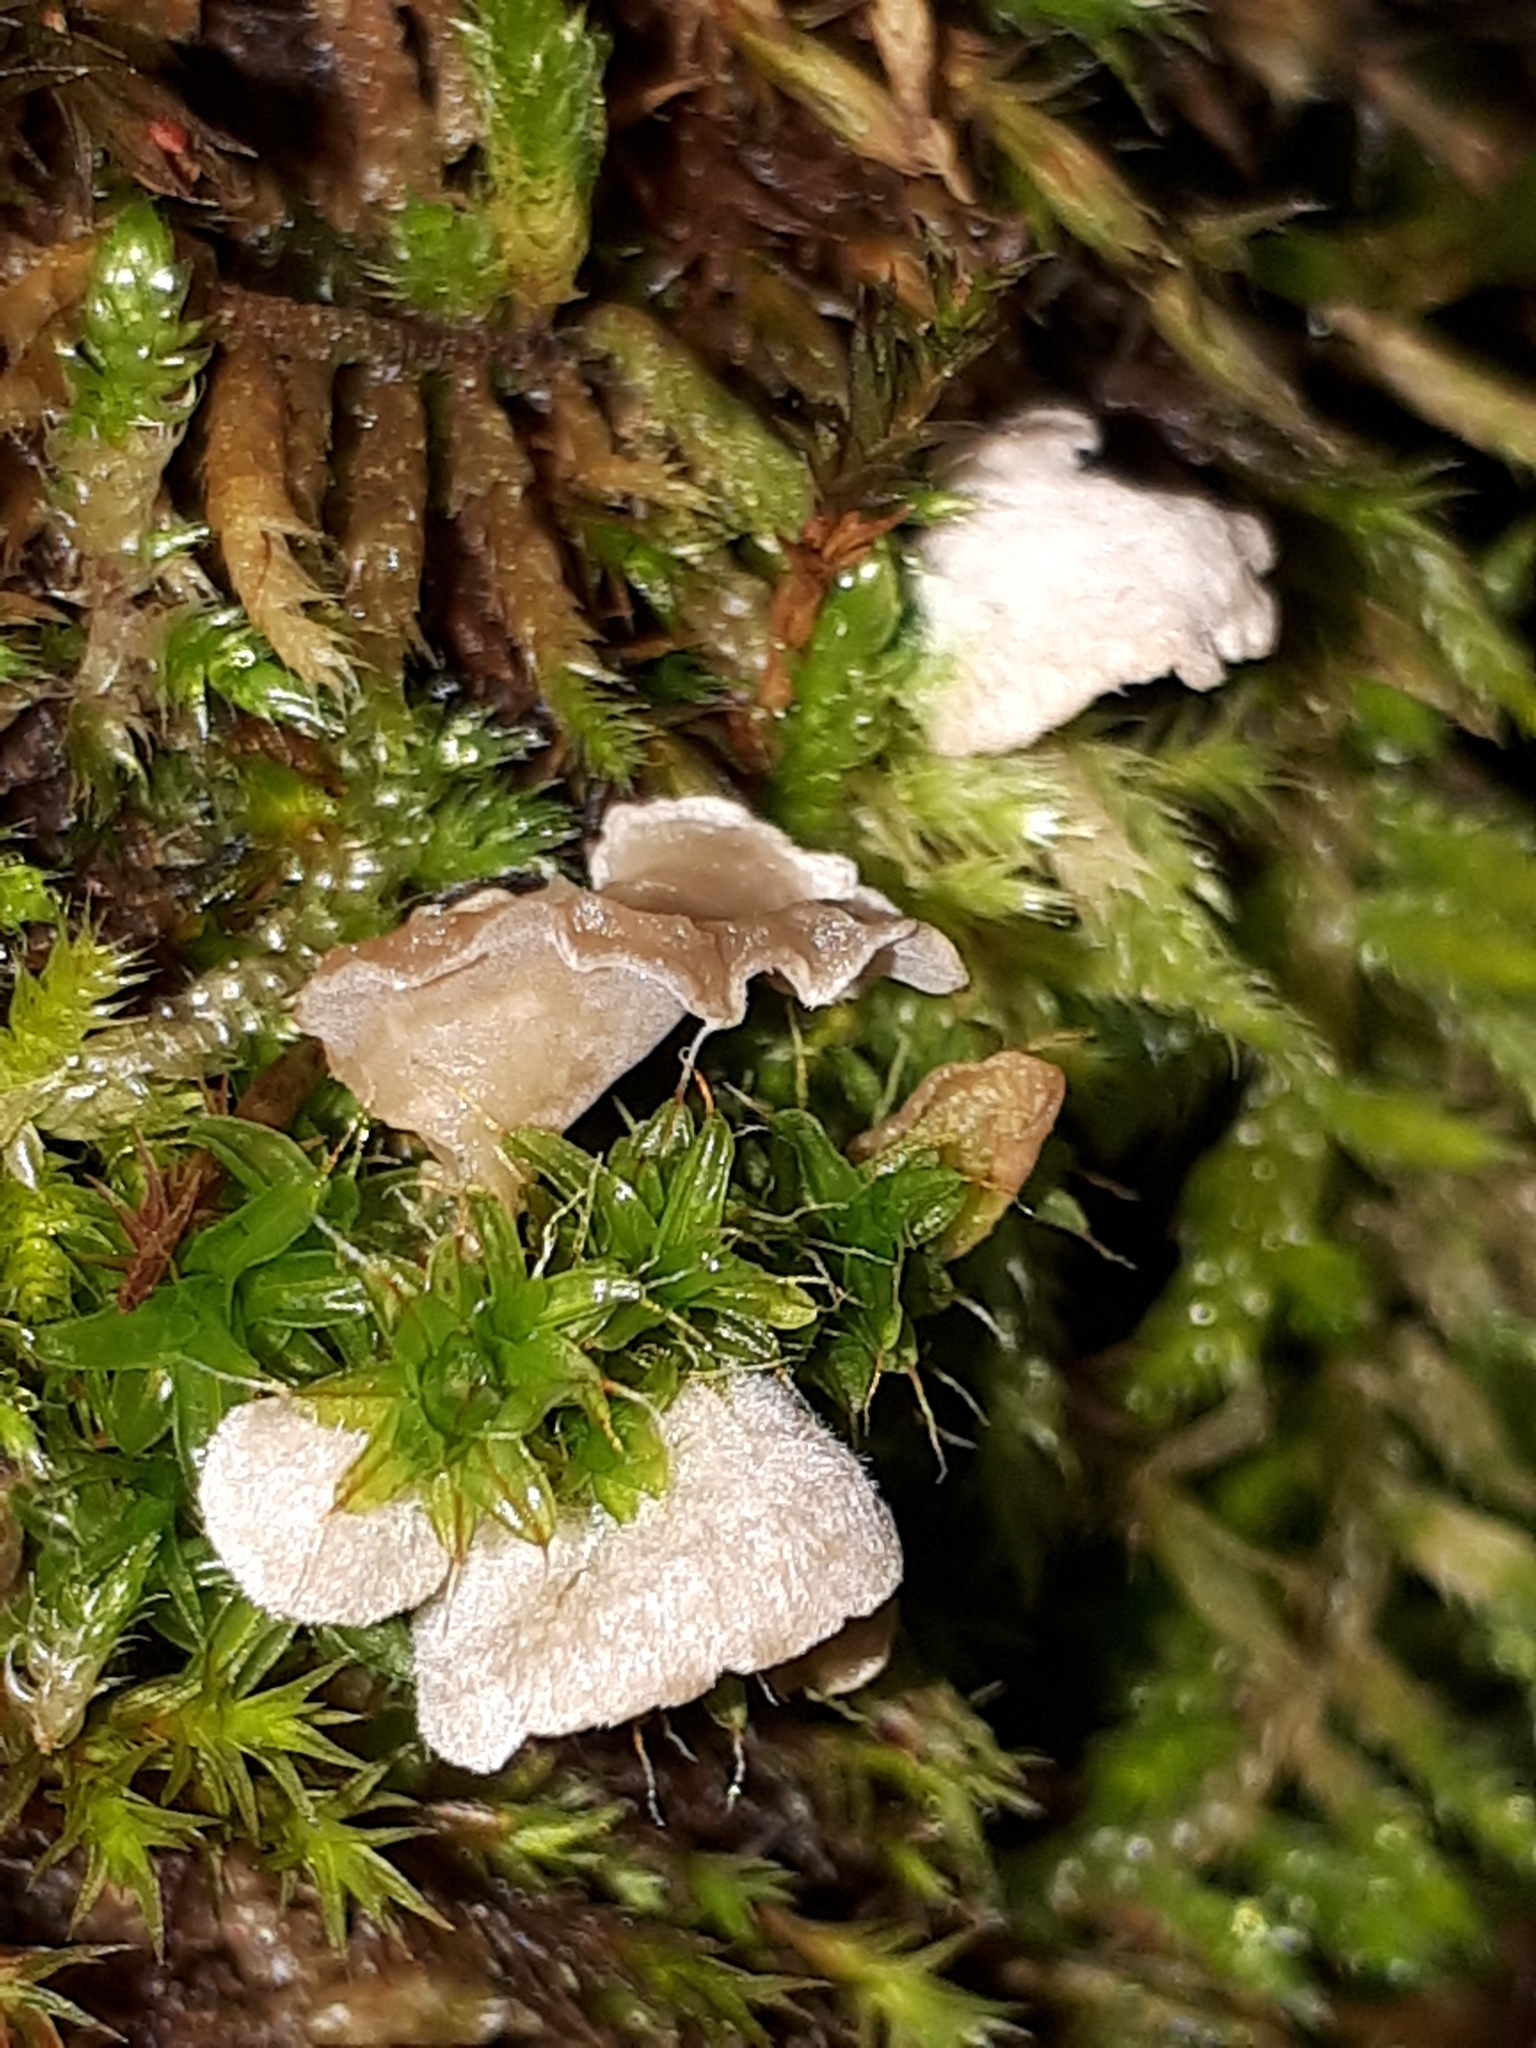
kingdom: Fungi
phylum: Basidiomycota
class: Agaricomycetes
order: Agaricales
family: Hygrophoraceae
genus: Arrhenia
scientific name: Arrhenia retiruga
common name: Small moss oysterling
